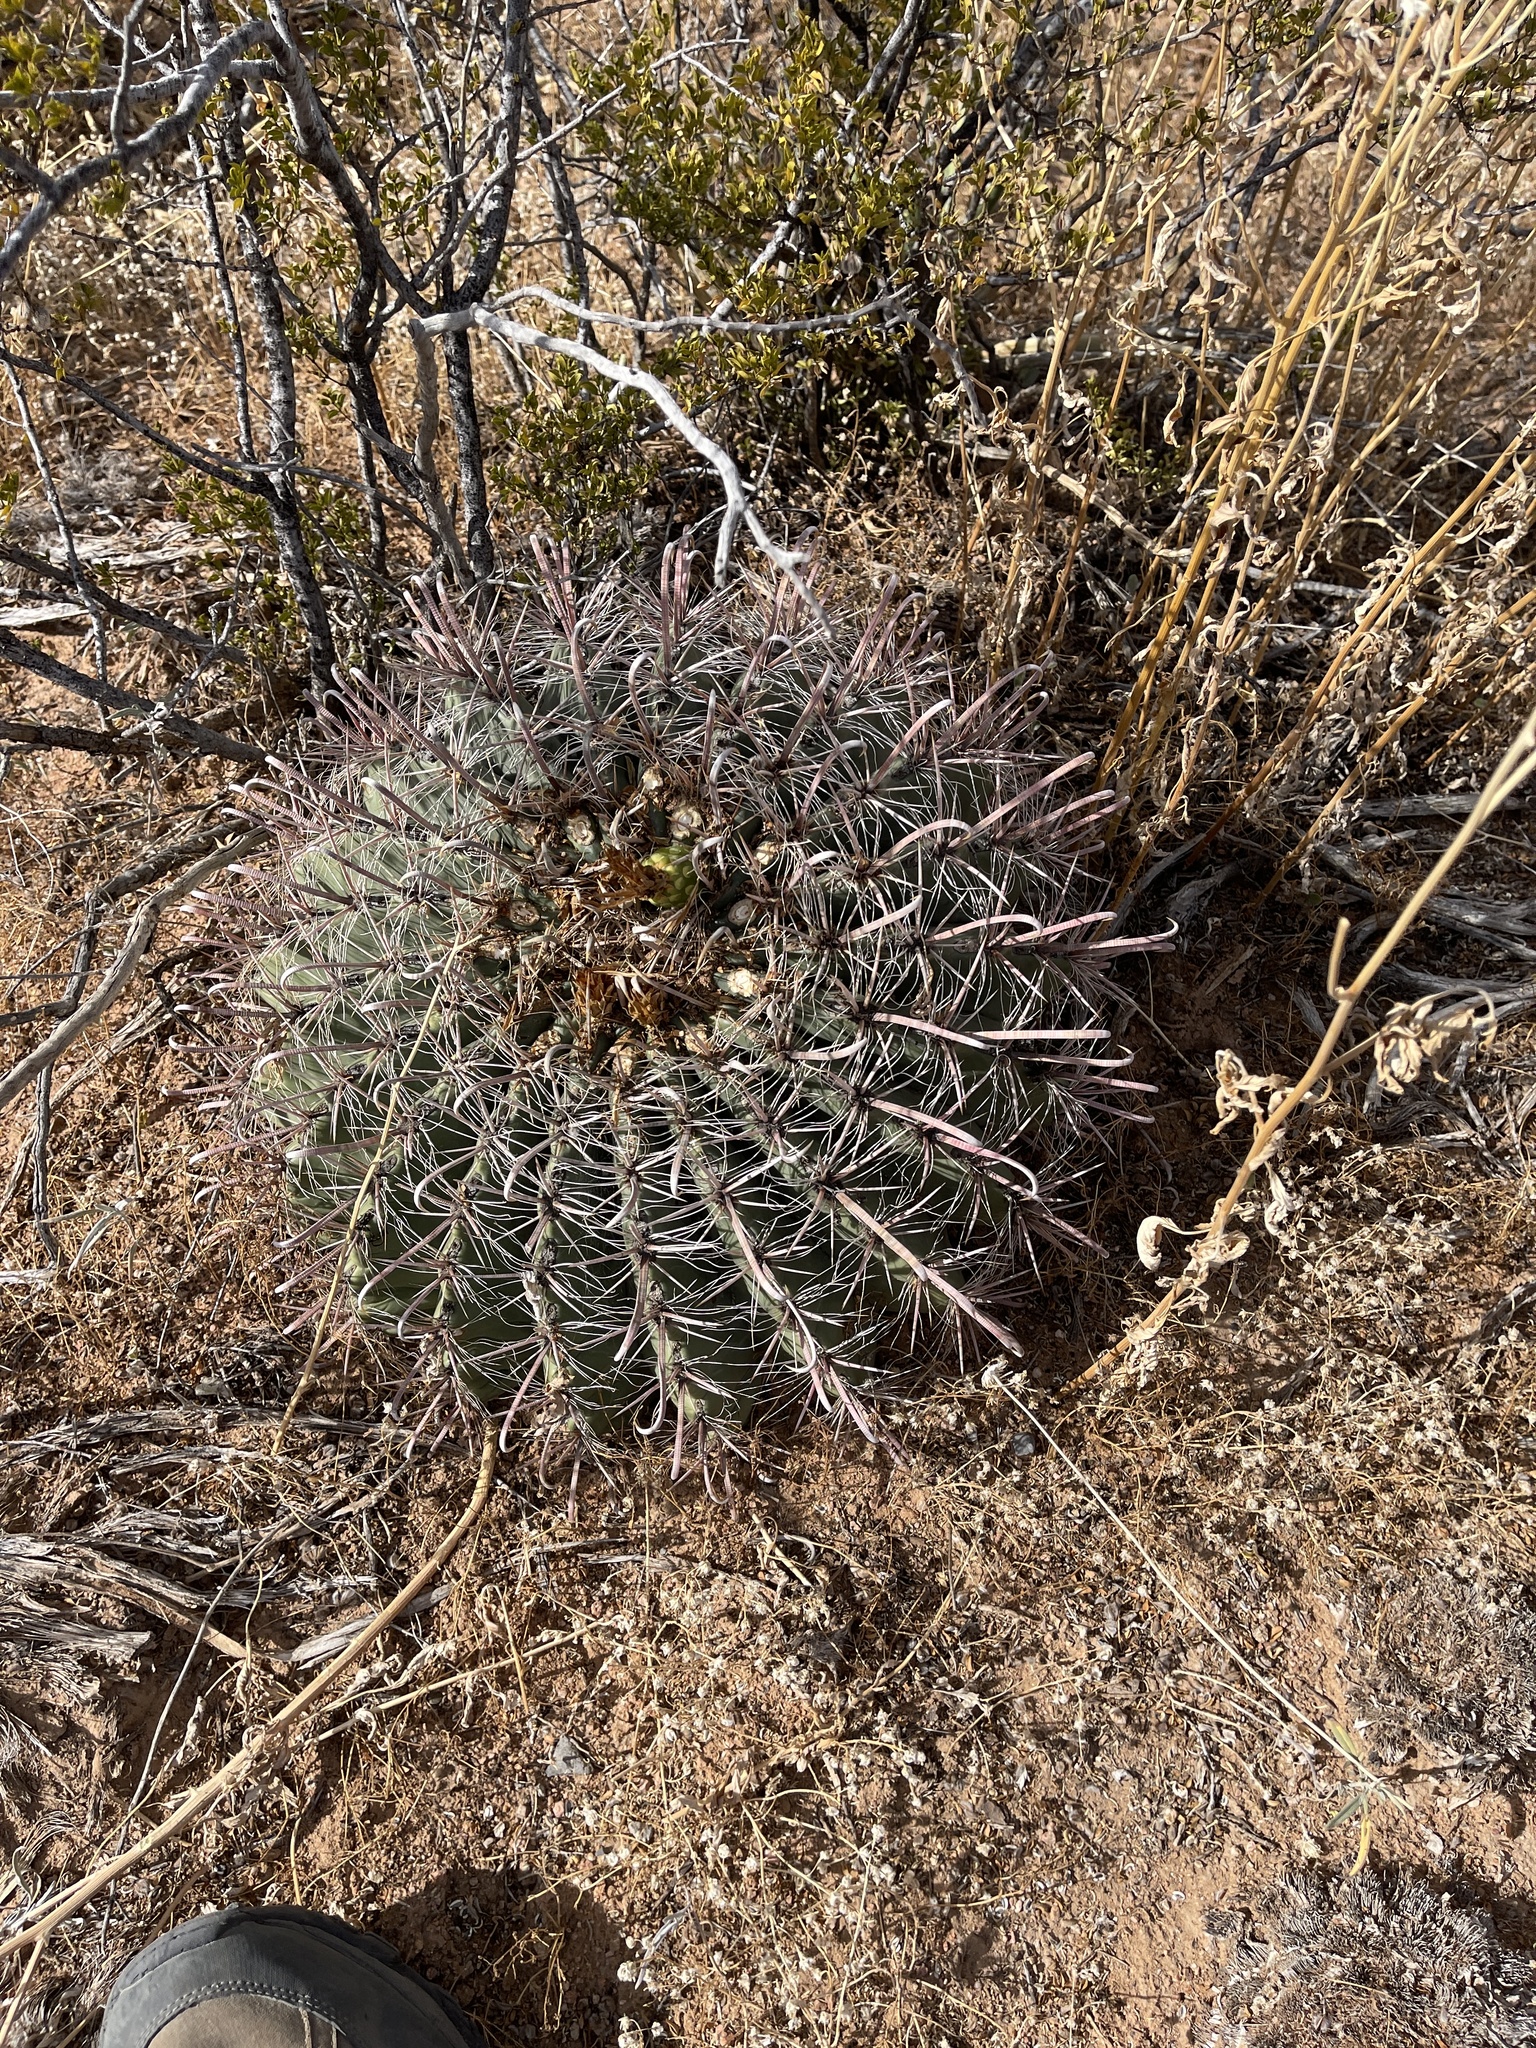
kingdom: Plantae
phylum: Tracheophyta
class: Magnoliopsida
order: Caryophyllales
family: Cactaceae
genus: Ferocactus
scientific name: Ferocactus wislizeni
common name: Candy barrel cactus
